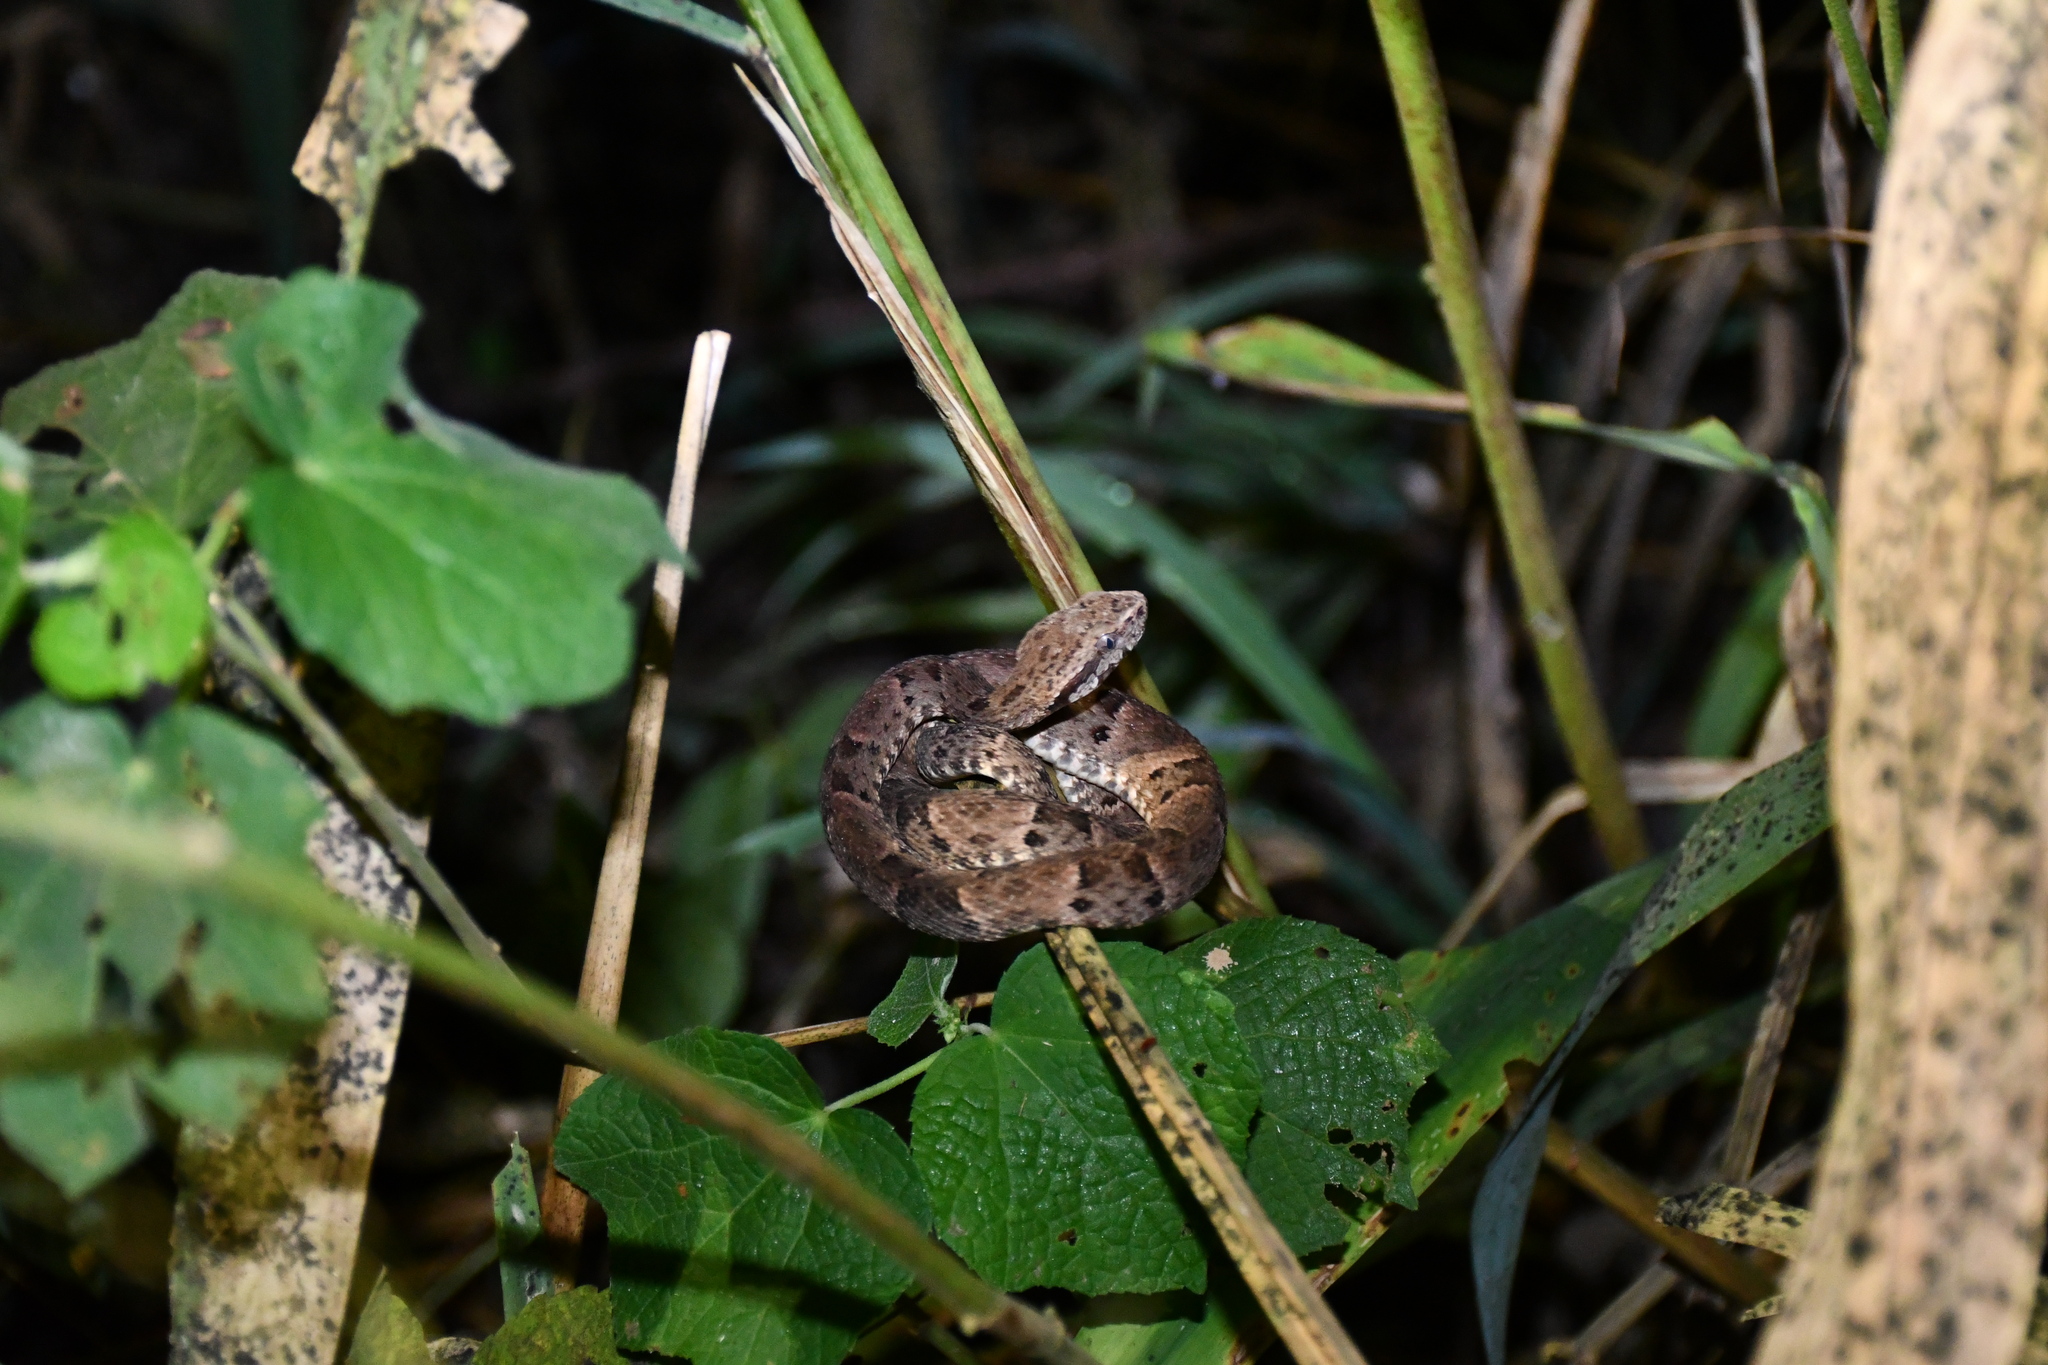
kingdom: Animalia
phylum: Chordata
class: Squamata
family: Viperidae
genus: Bothrops
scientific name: Bothrops atrox
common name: Common lancehead
